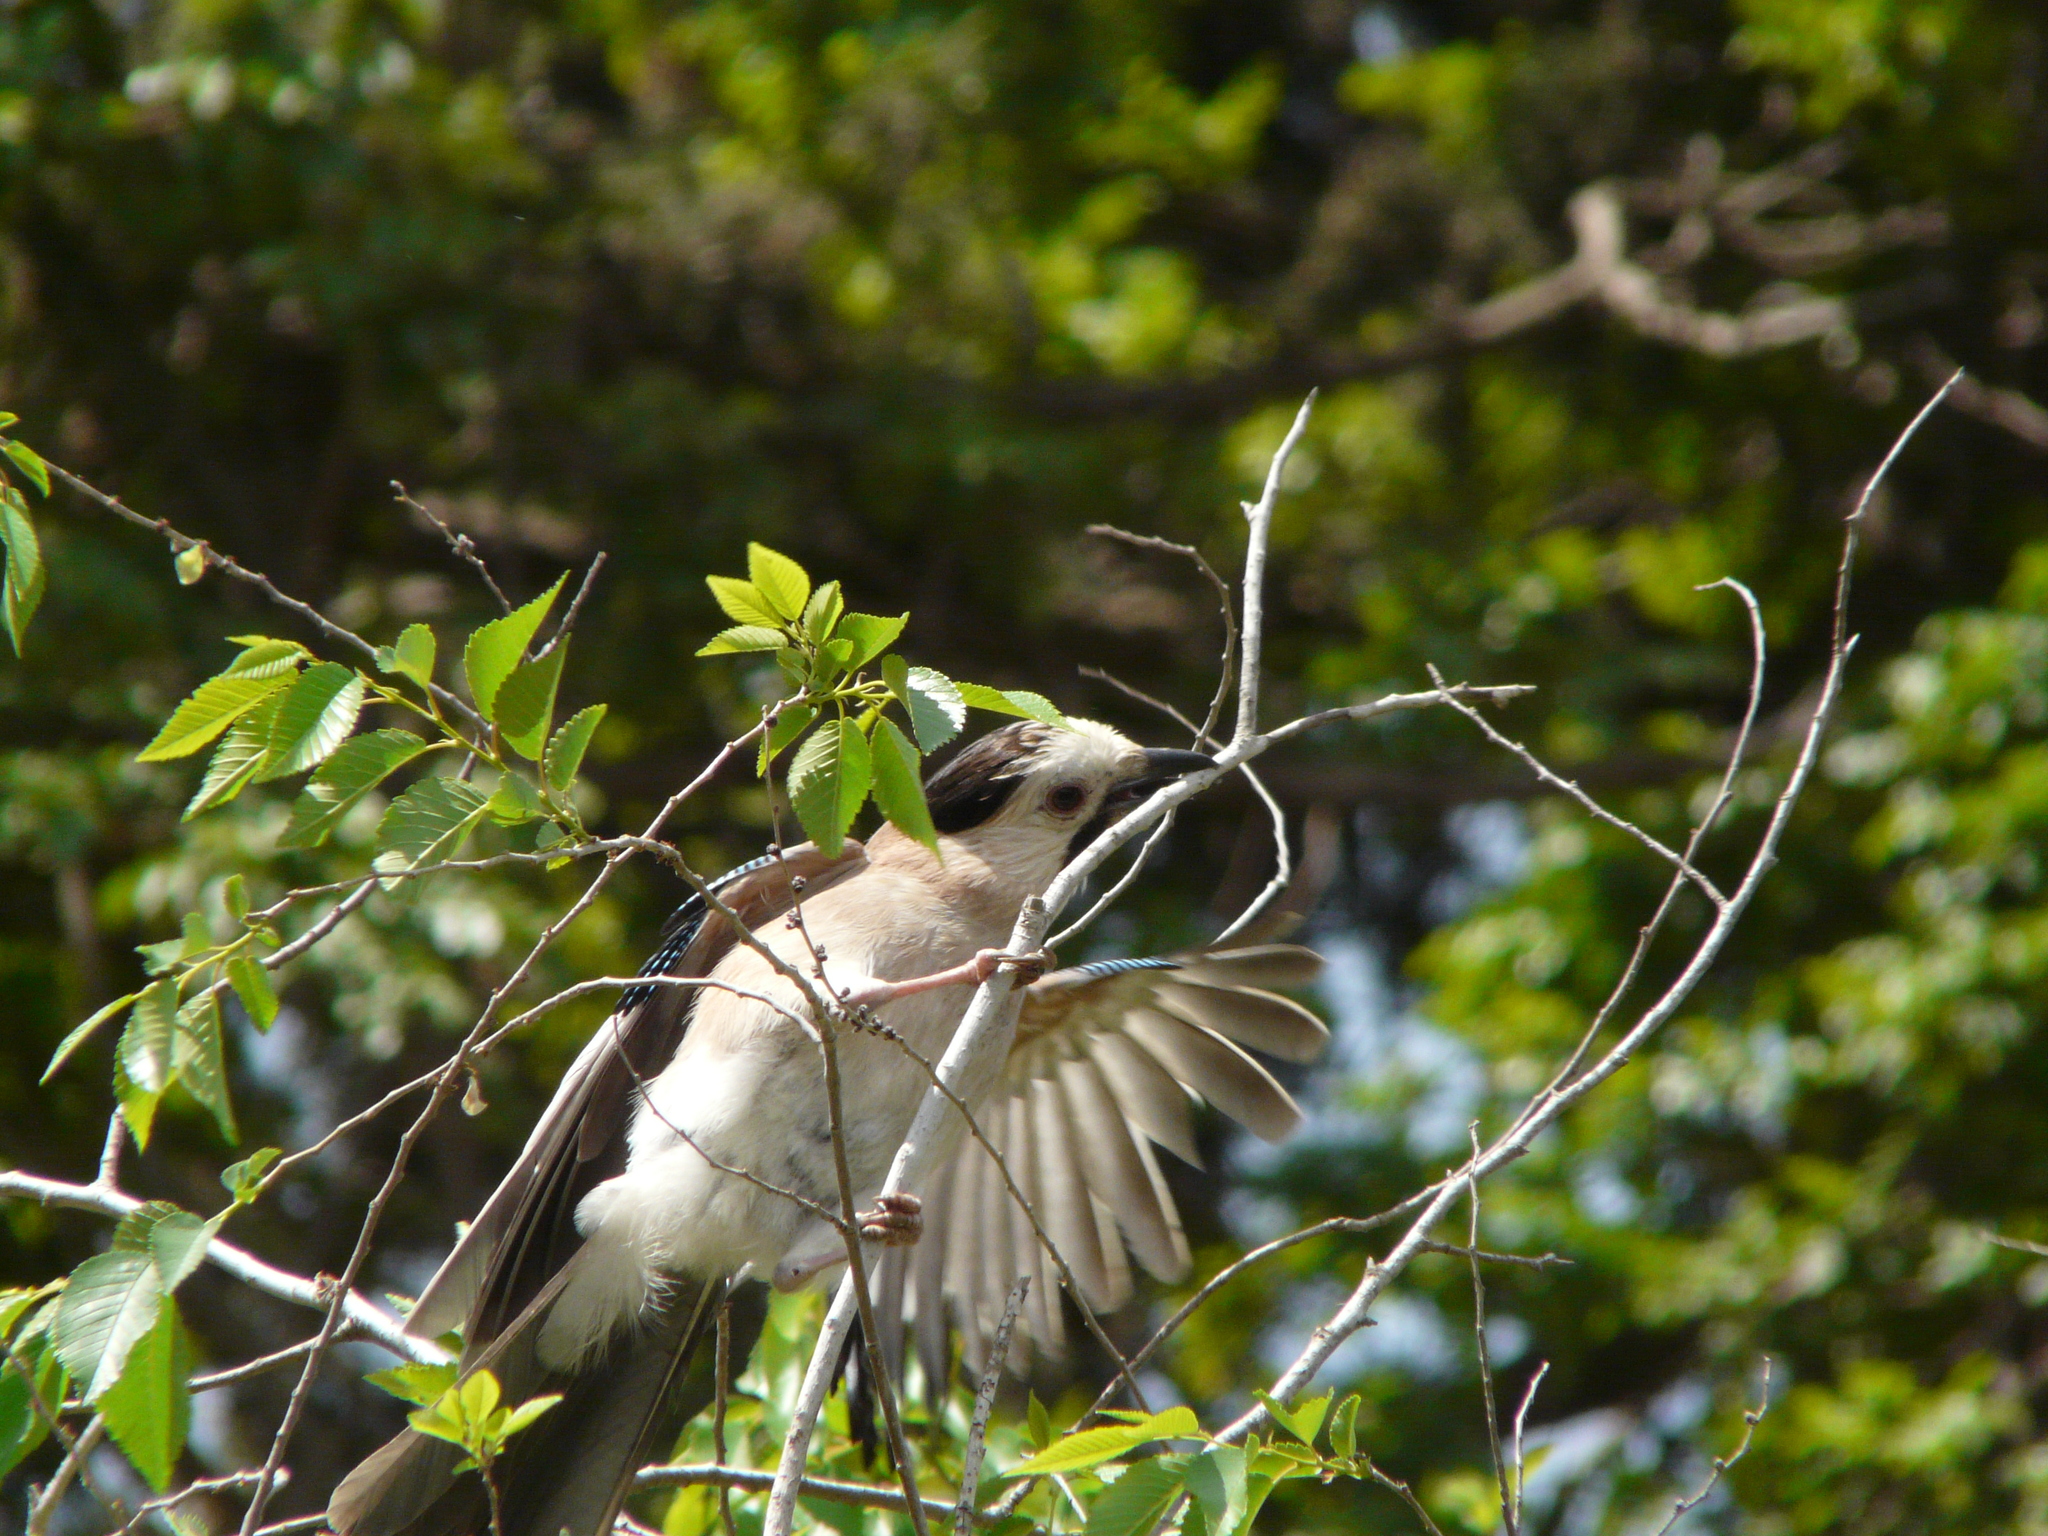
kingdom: Animalia
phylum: Chordata
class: Aves
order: Passeriformes
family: Corvidae
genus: Garrulus
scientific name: Garrulus glandarius
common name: Eurasian jay
